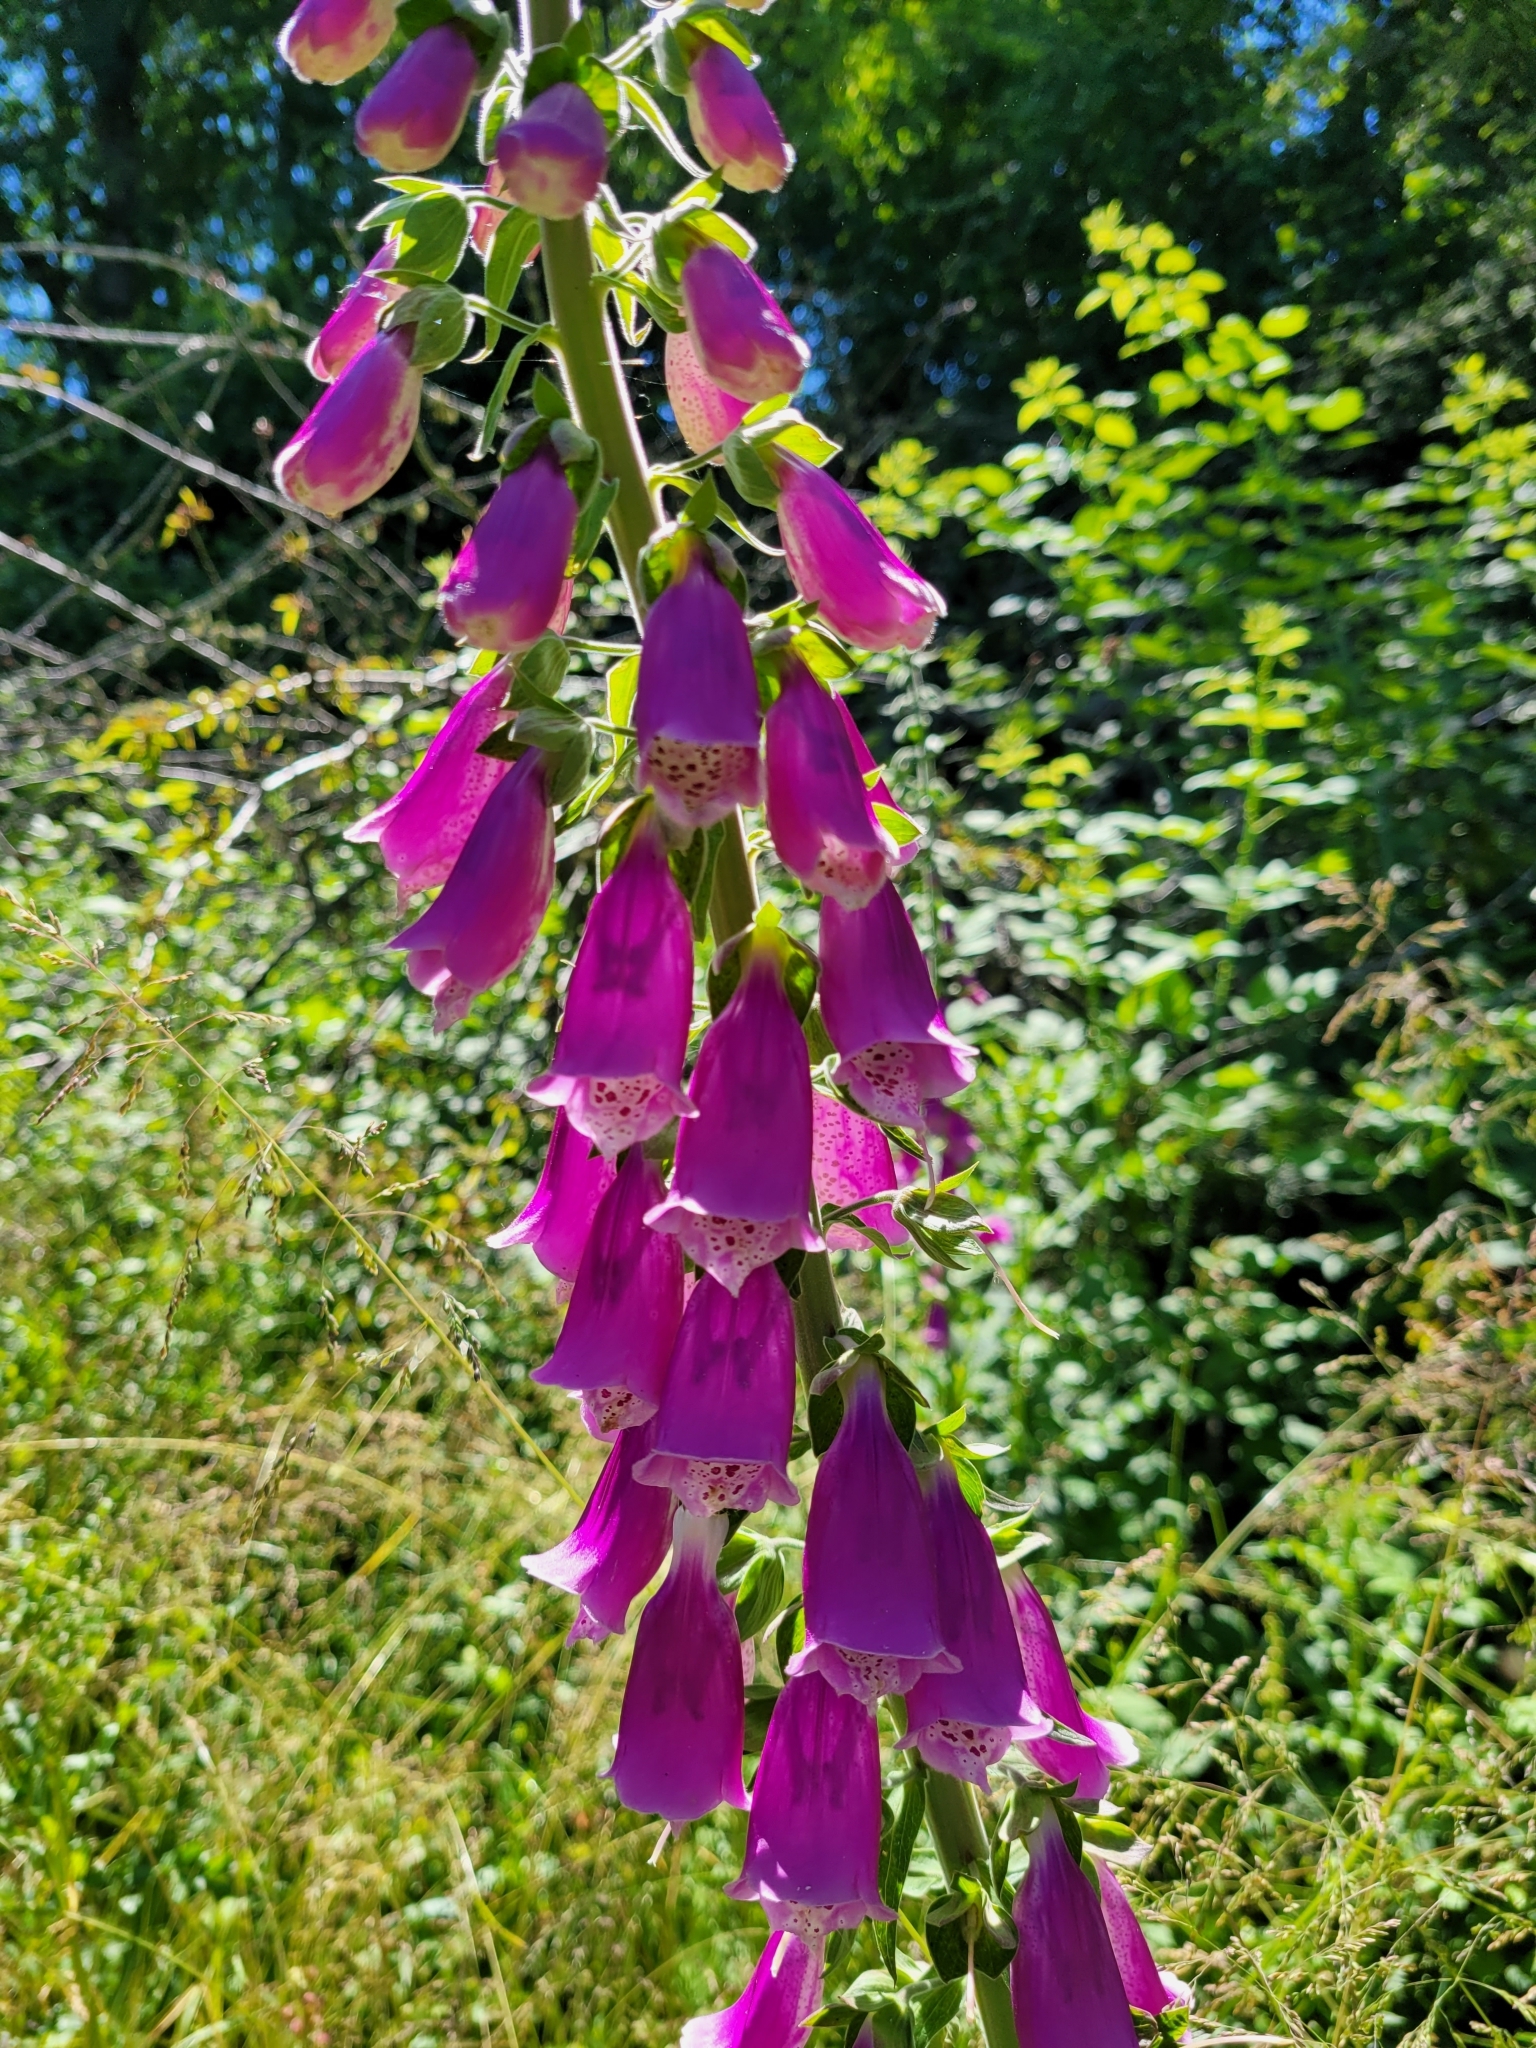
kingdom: Plantae
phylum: Tracheophyta
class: Magnoliopsida
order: Lamiales
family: Plantaginaceae
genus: Digitalis
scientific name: Digitalis purpurea
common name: Foxglove
